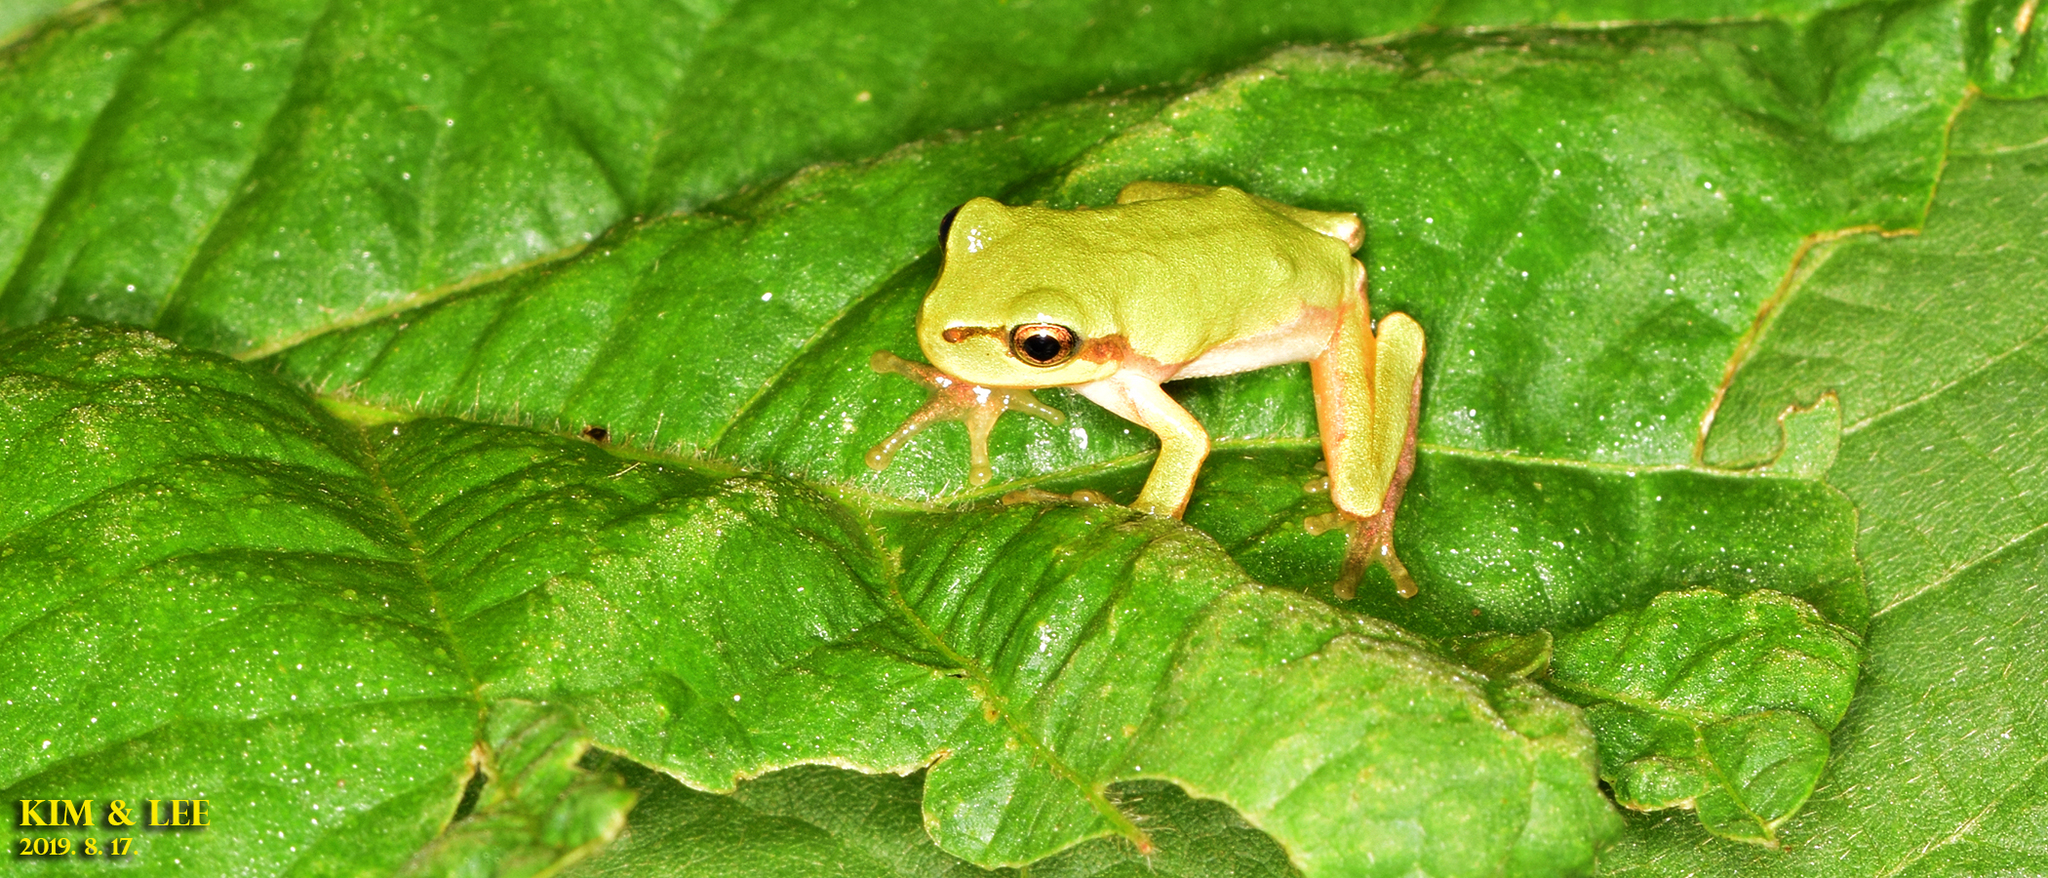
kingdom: Animalia
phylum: Chordata
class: Amphibia
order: Anura
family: Hylidae
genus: Dryophytes
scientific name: Dryophytes japonicus
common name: Japanese treefrog
